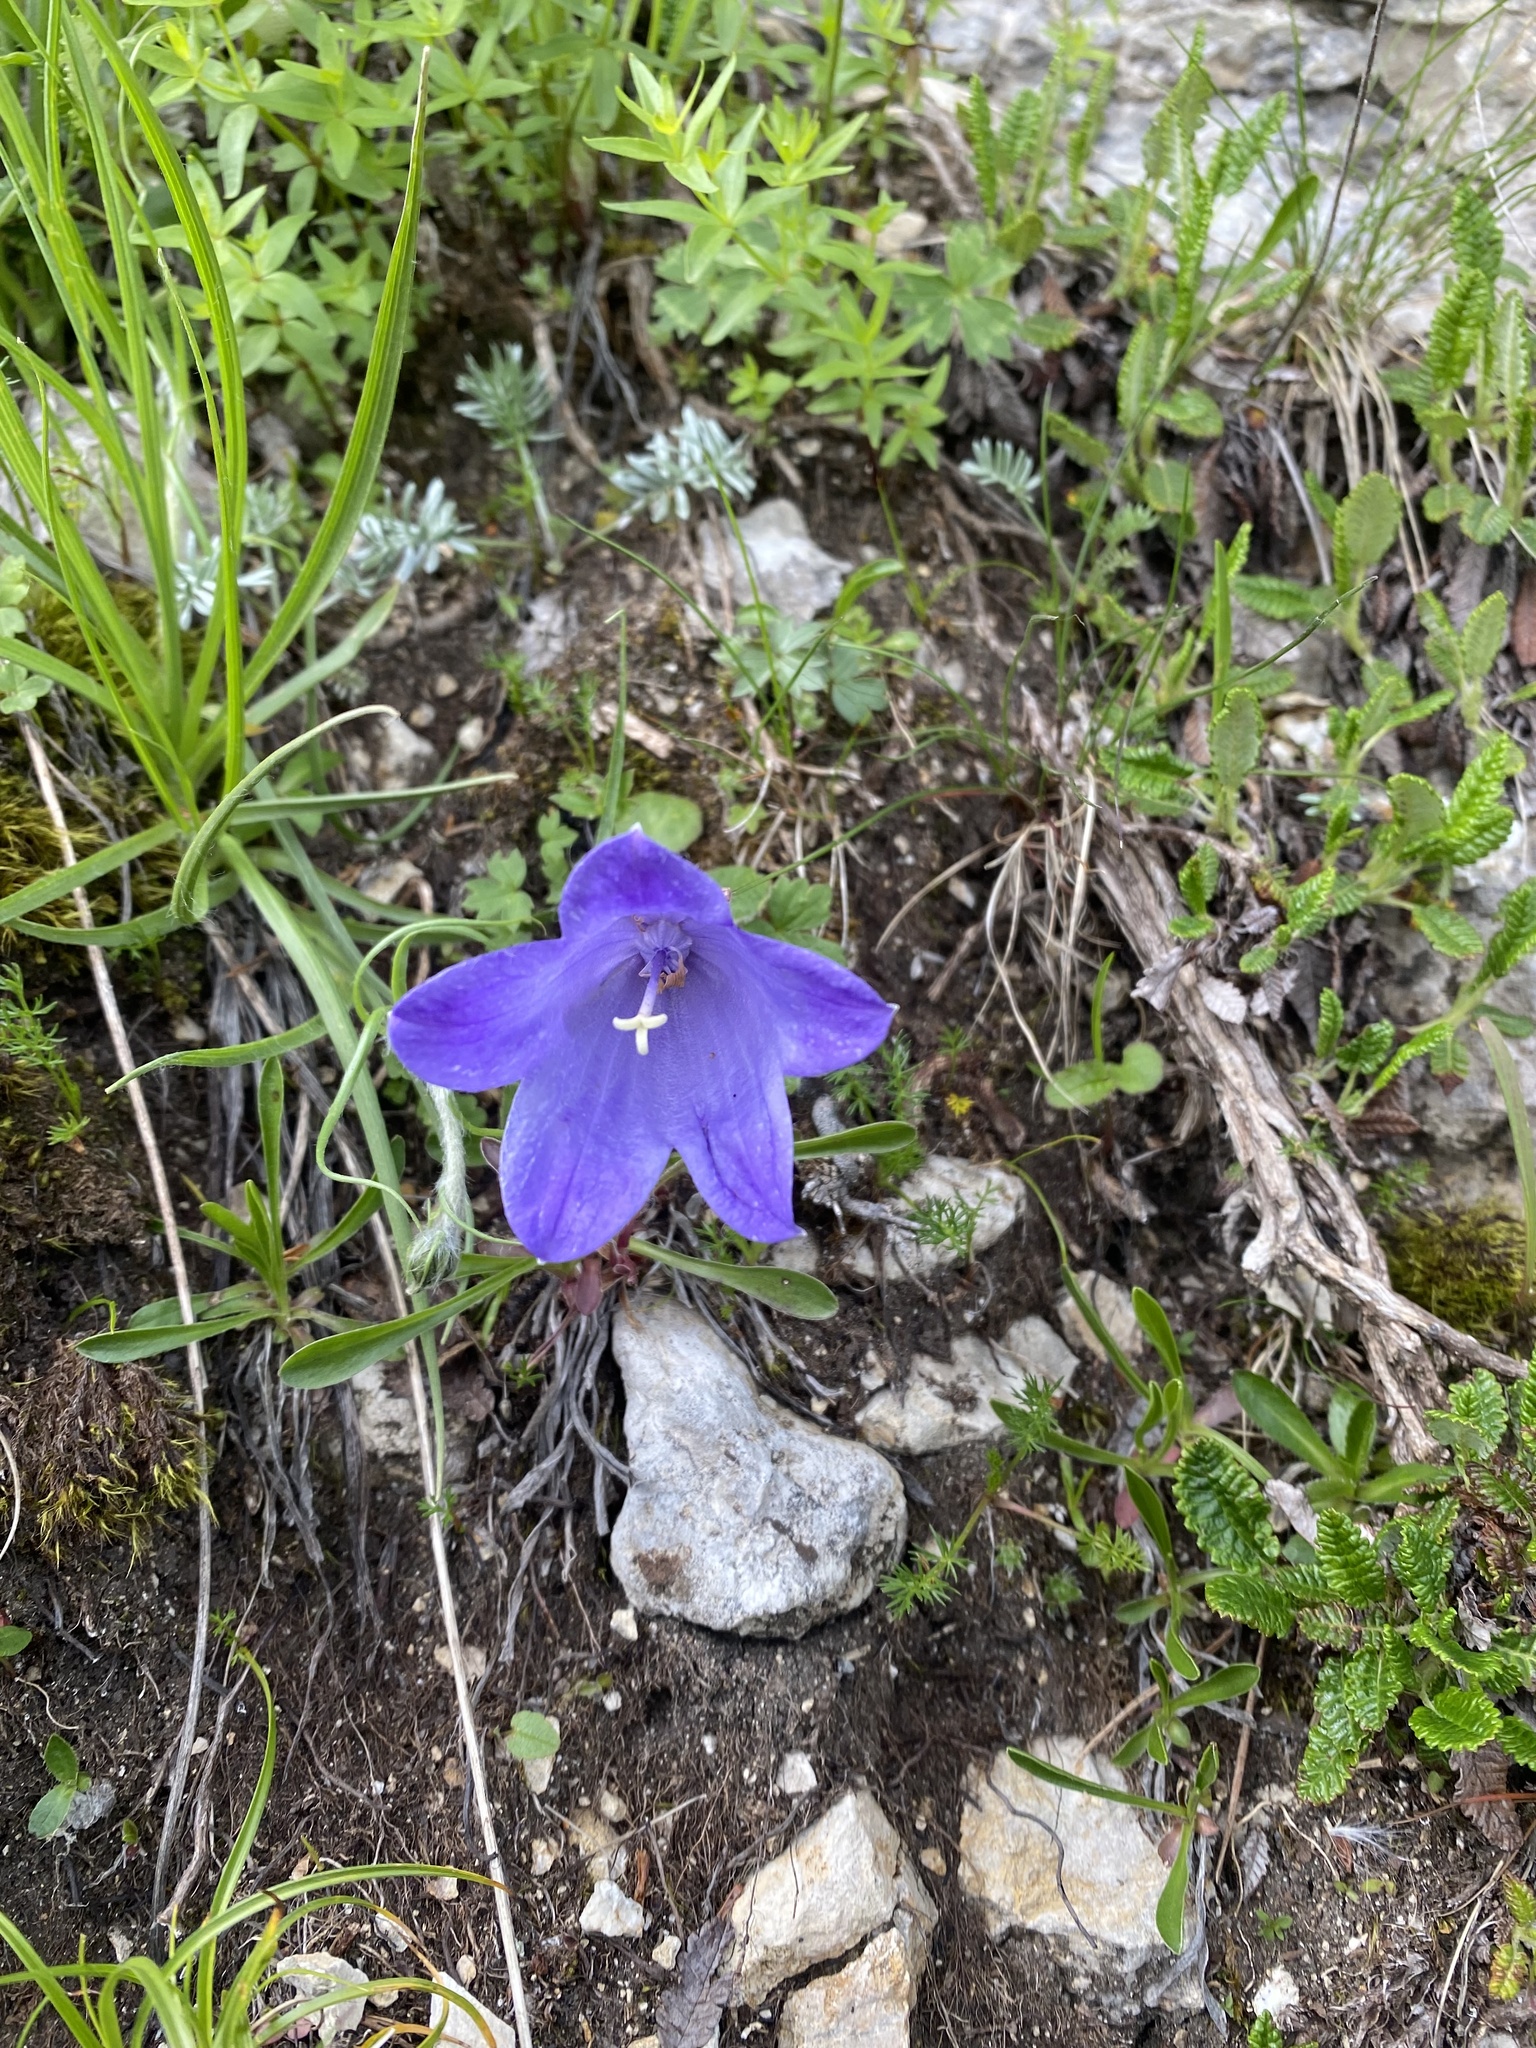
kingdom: Plantae
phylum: Tracheophyta
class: Magnoliopsida
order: Asterales
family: Campanulaceae
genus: Campanula
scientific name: Campanula tridentata
